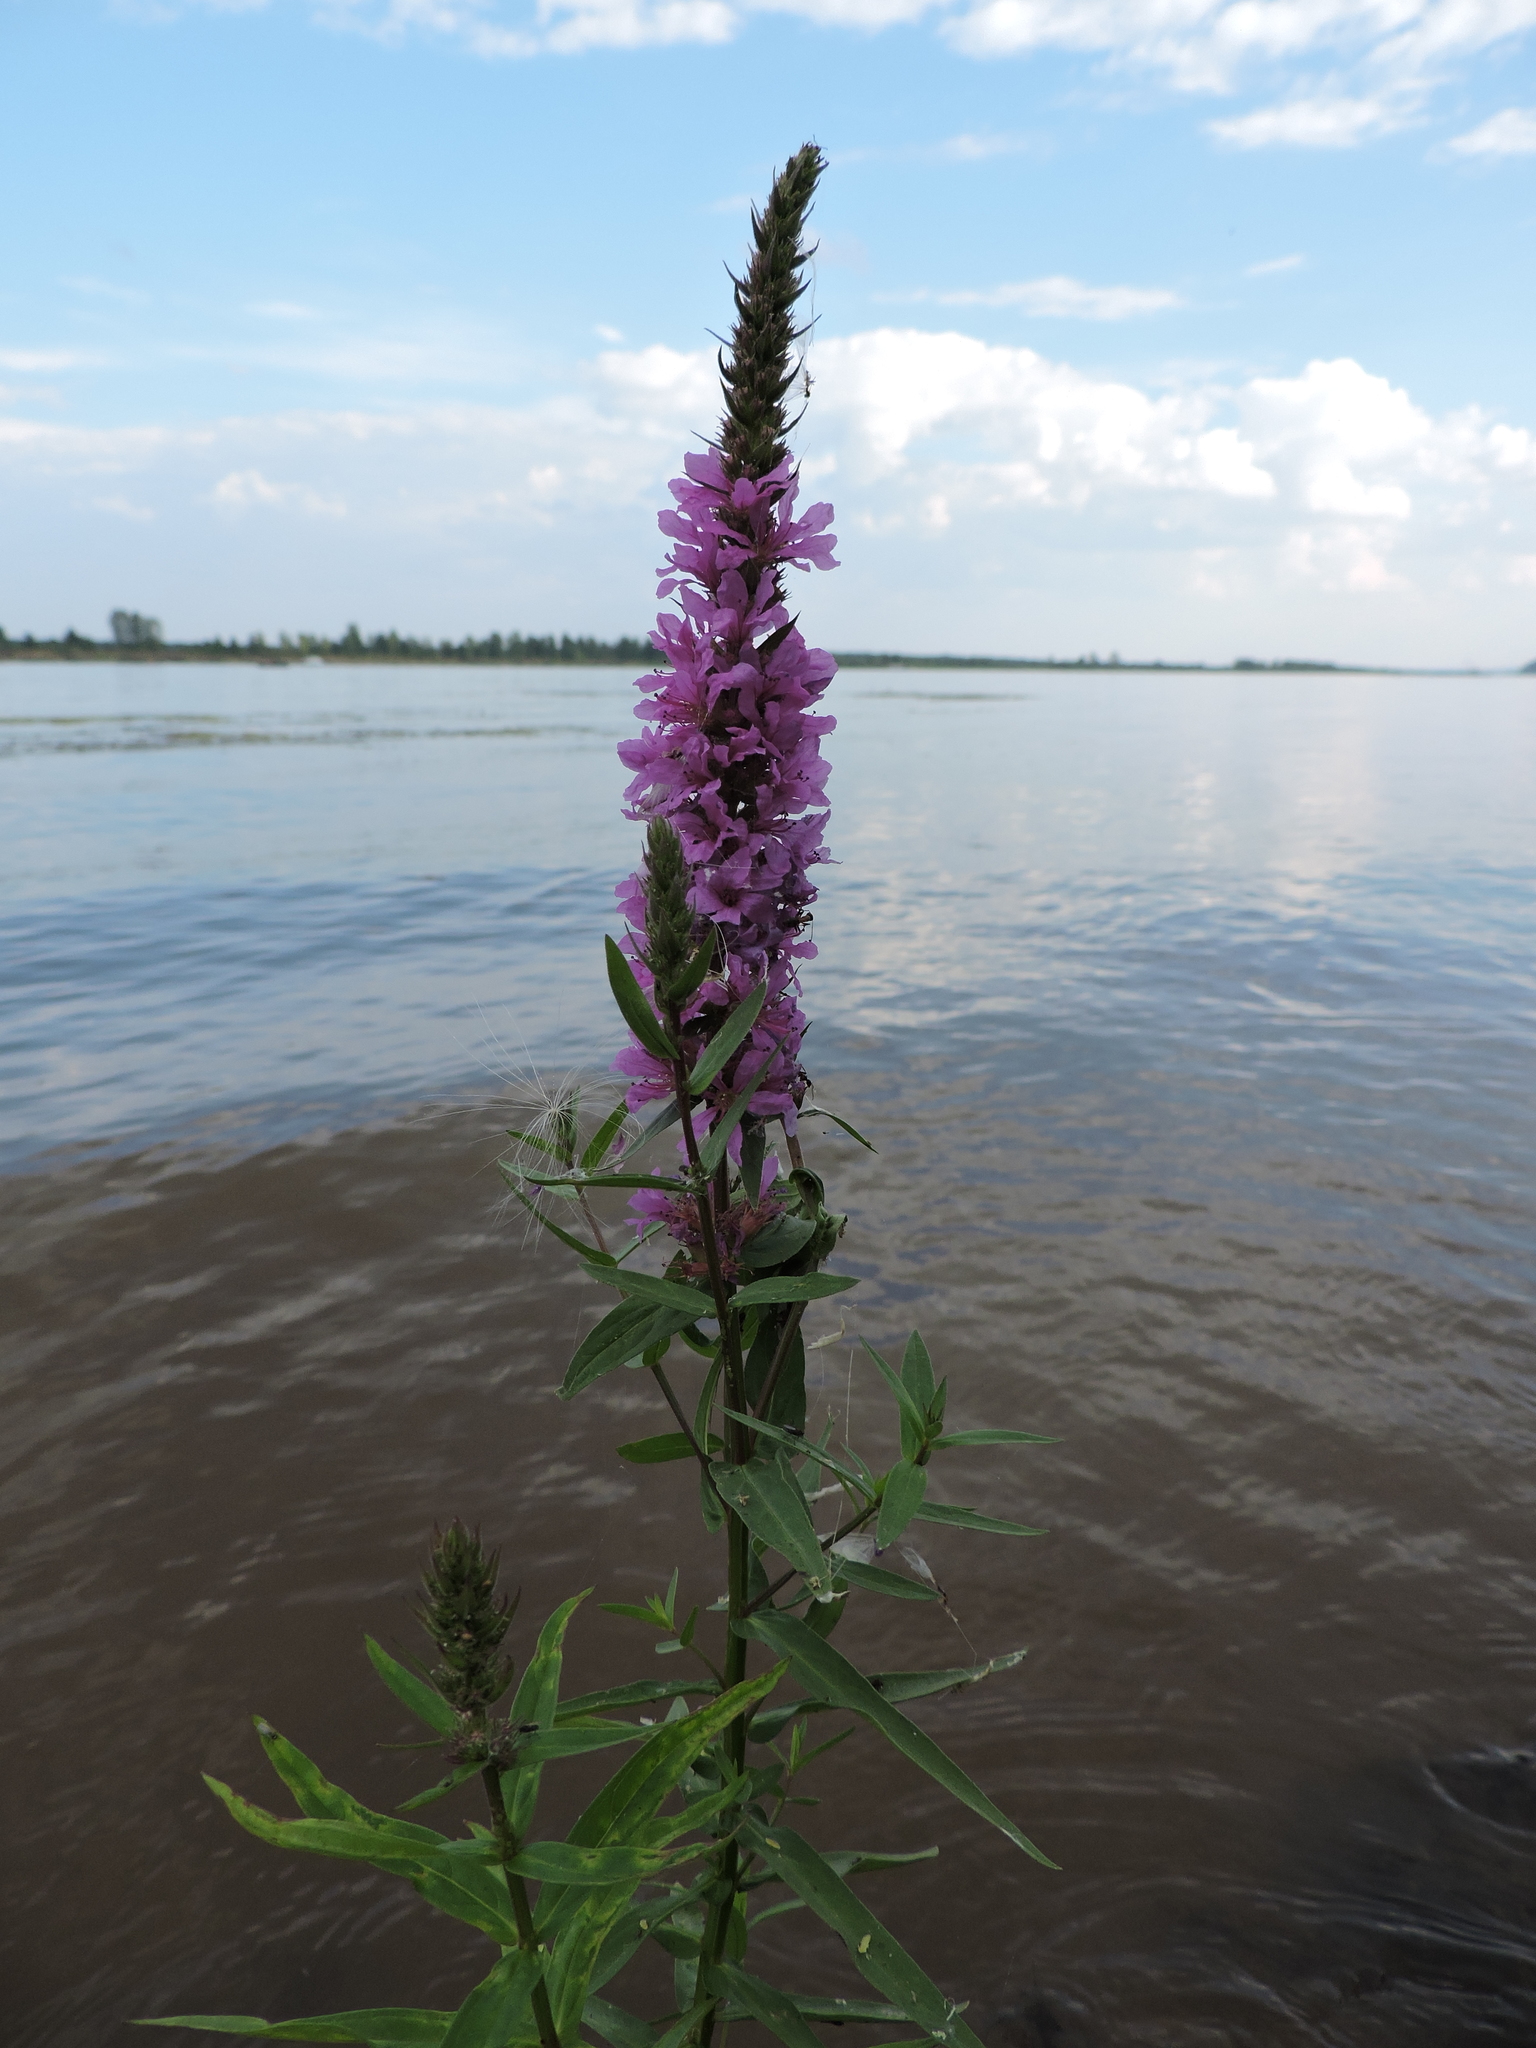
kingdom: Plantae
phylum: Tracheophyta
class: Magnoliopsida
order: Myrtales
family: Lythraceae
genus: Lythrum
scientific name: Lythrum salicaria
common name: Purple loosestrife
